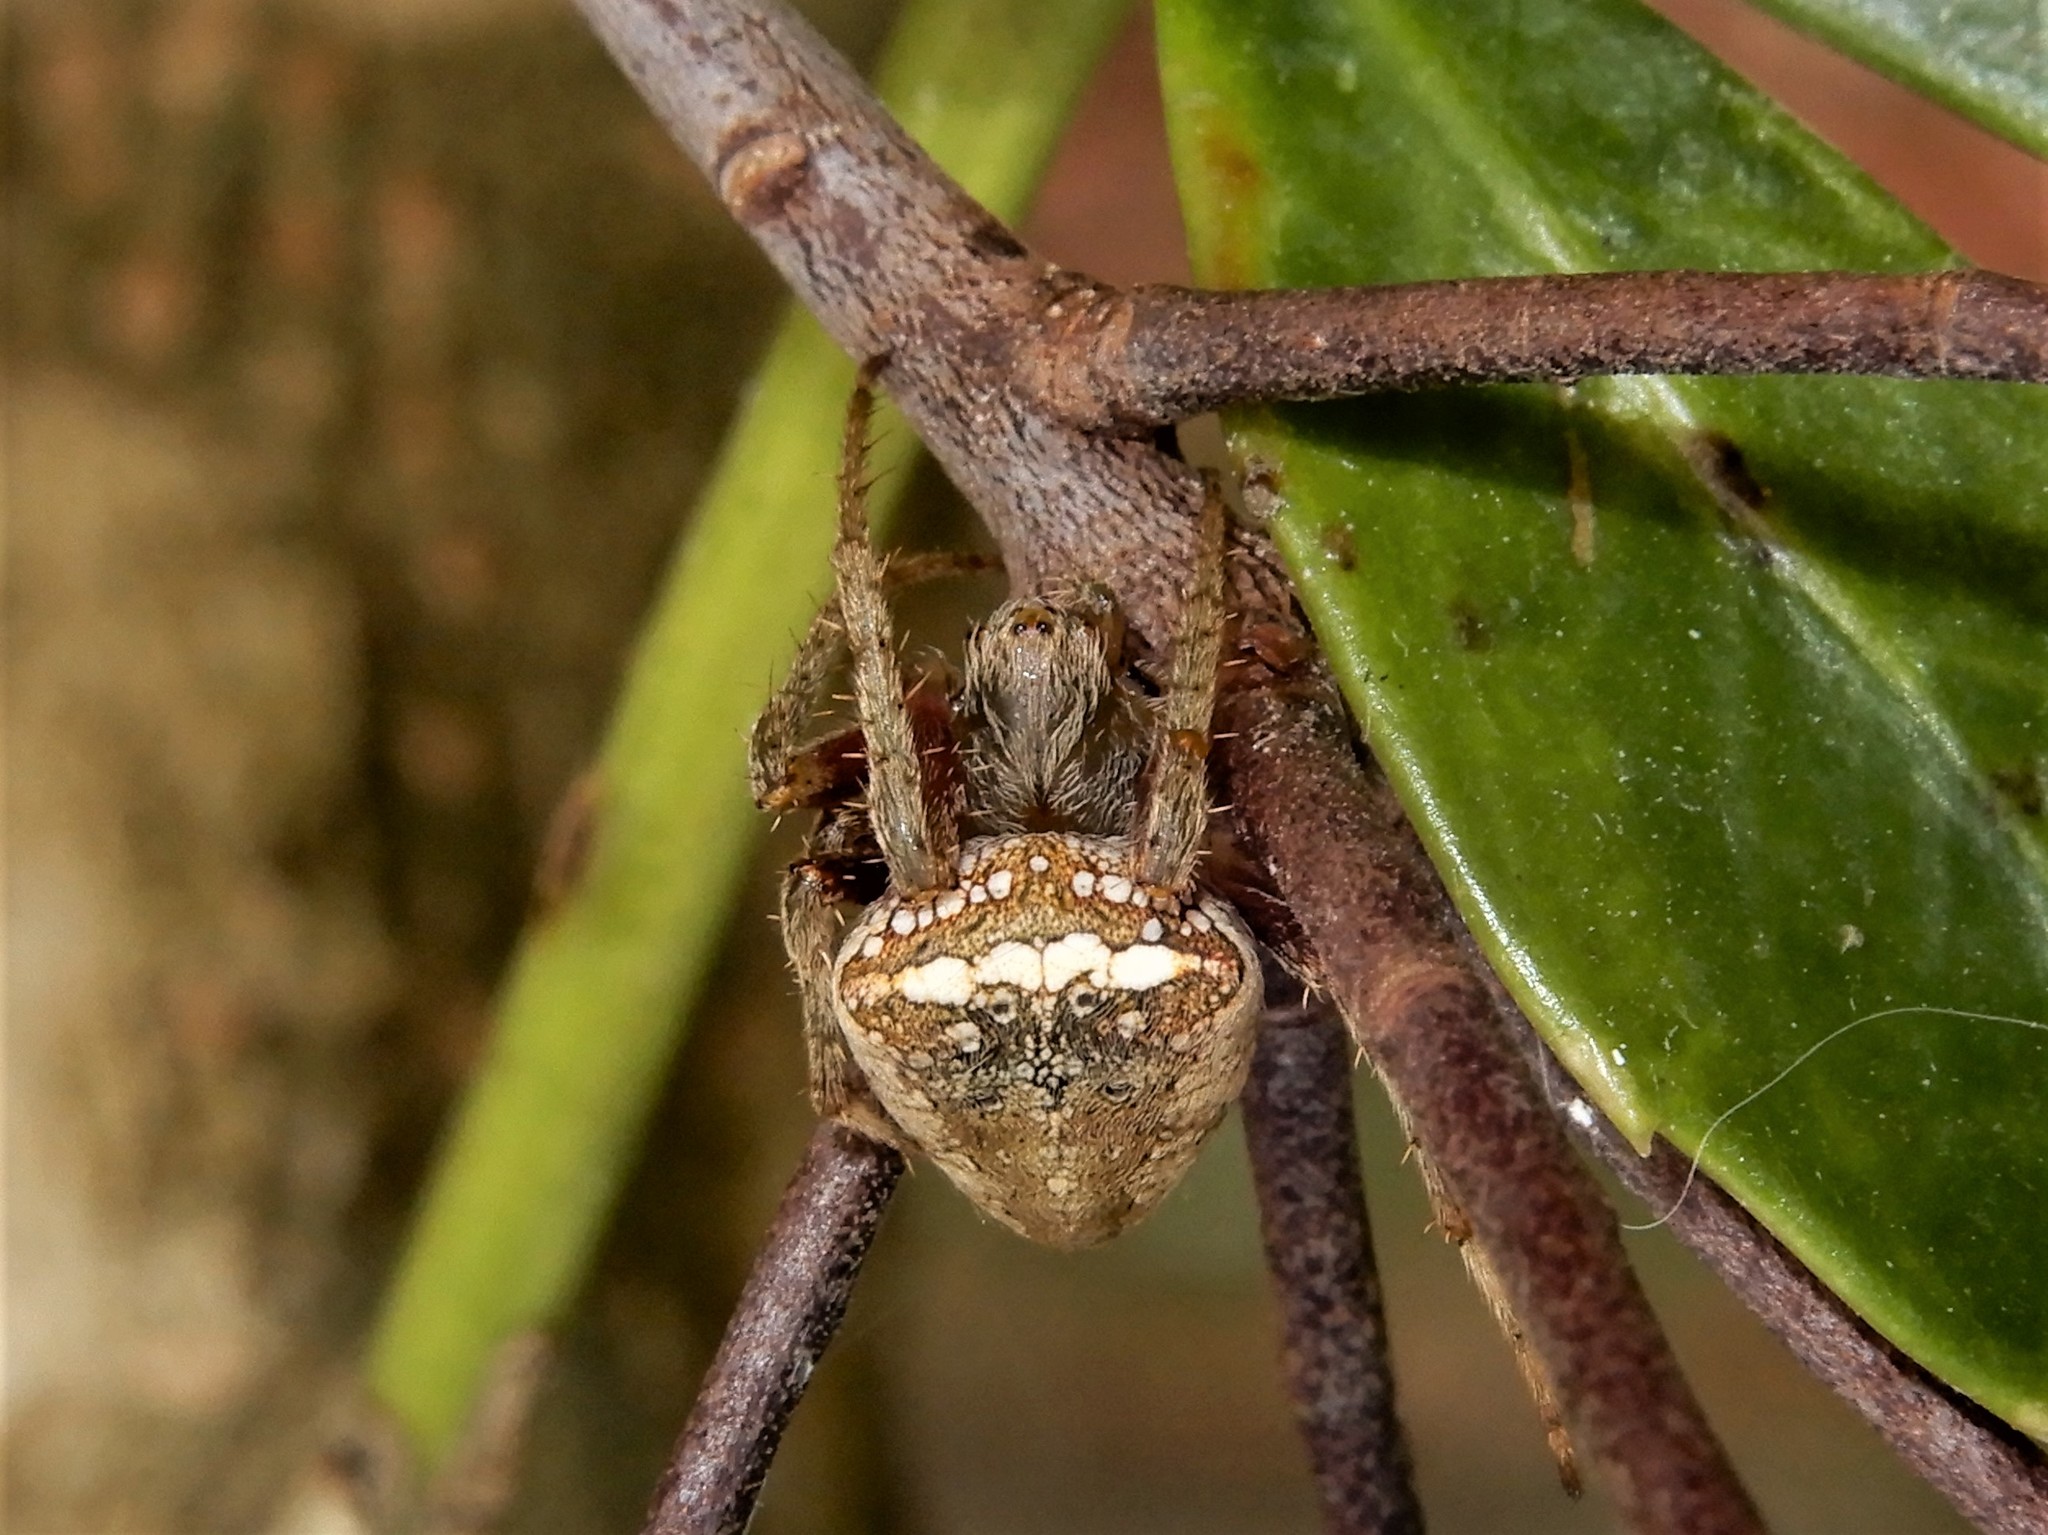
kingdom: Animalia
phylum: Arthropoda
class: Arachnida
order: Araneae
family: Araneidae
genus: Zealaranea
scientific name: Zealaranea crassa
